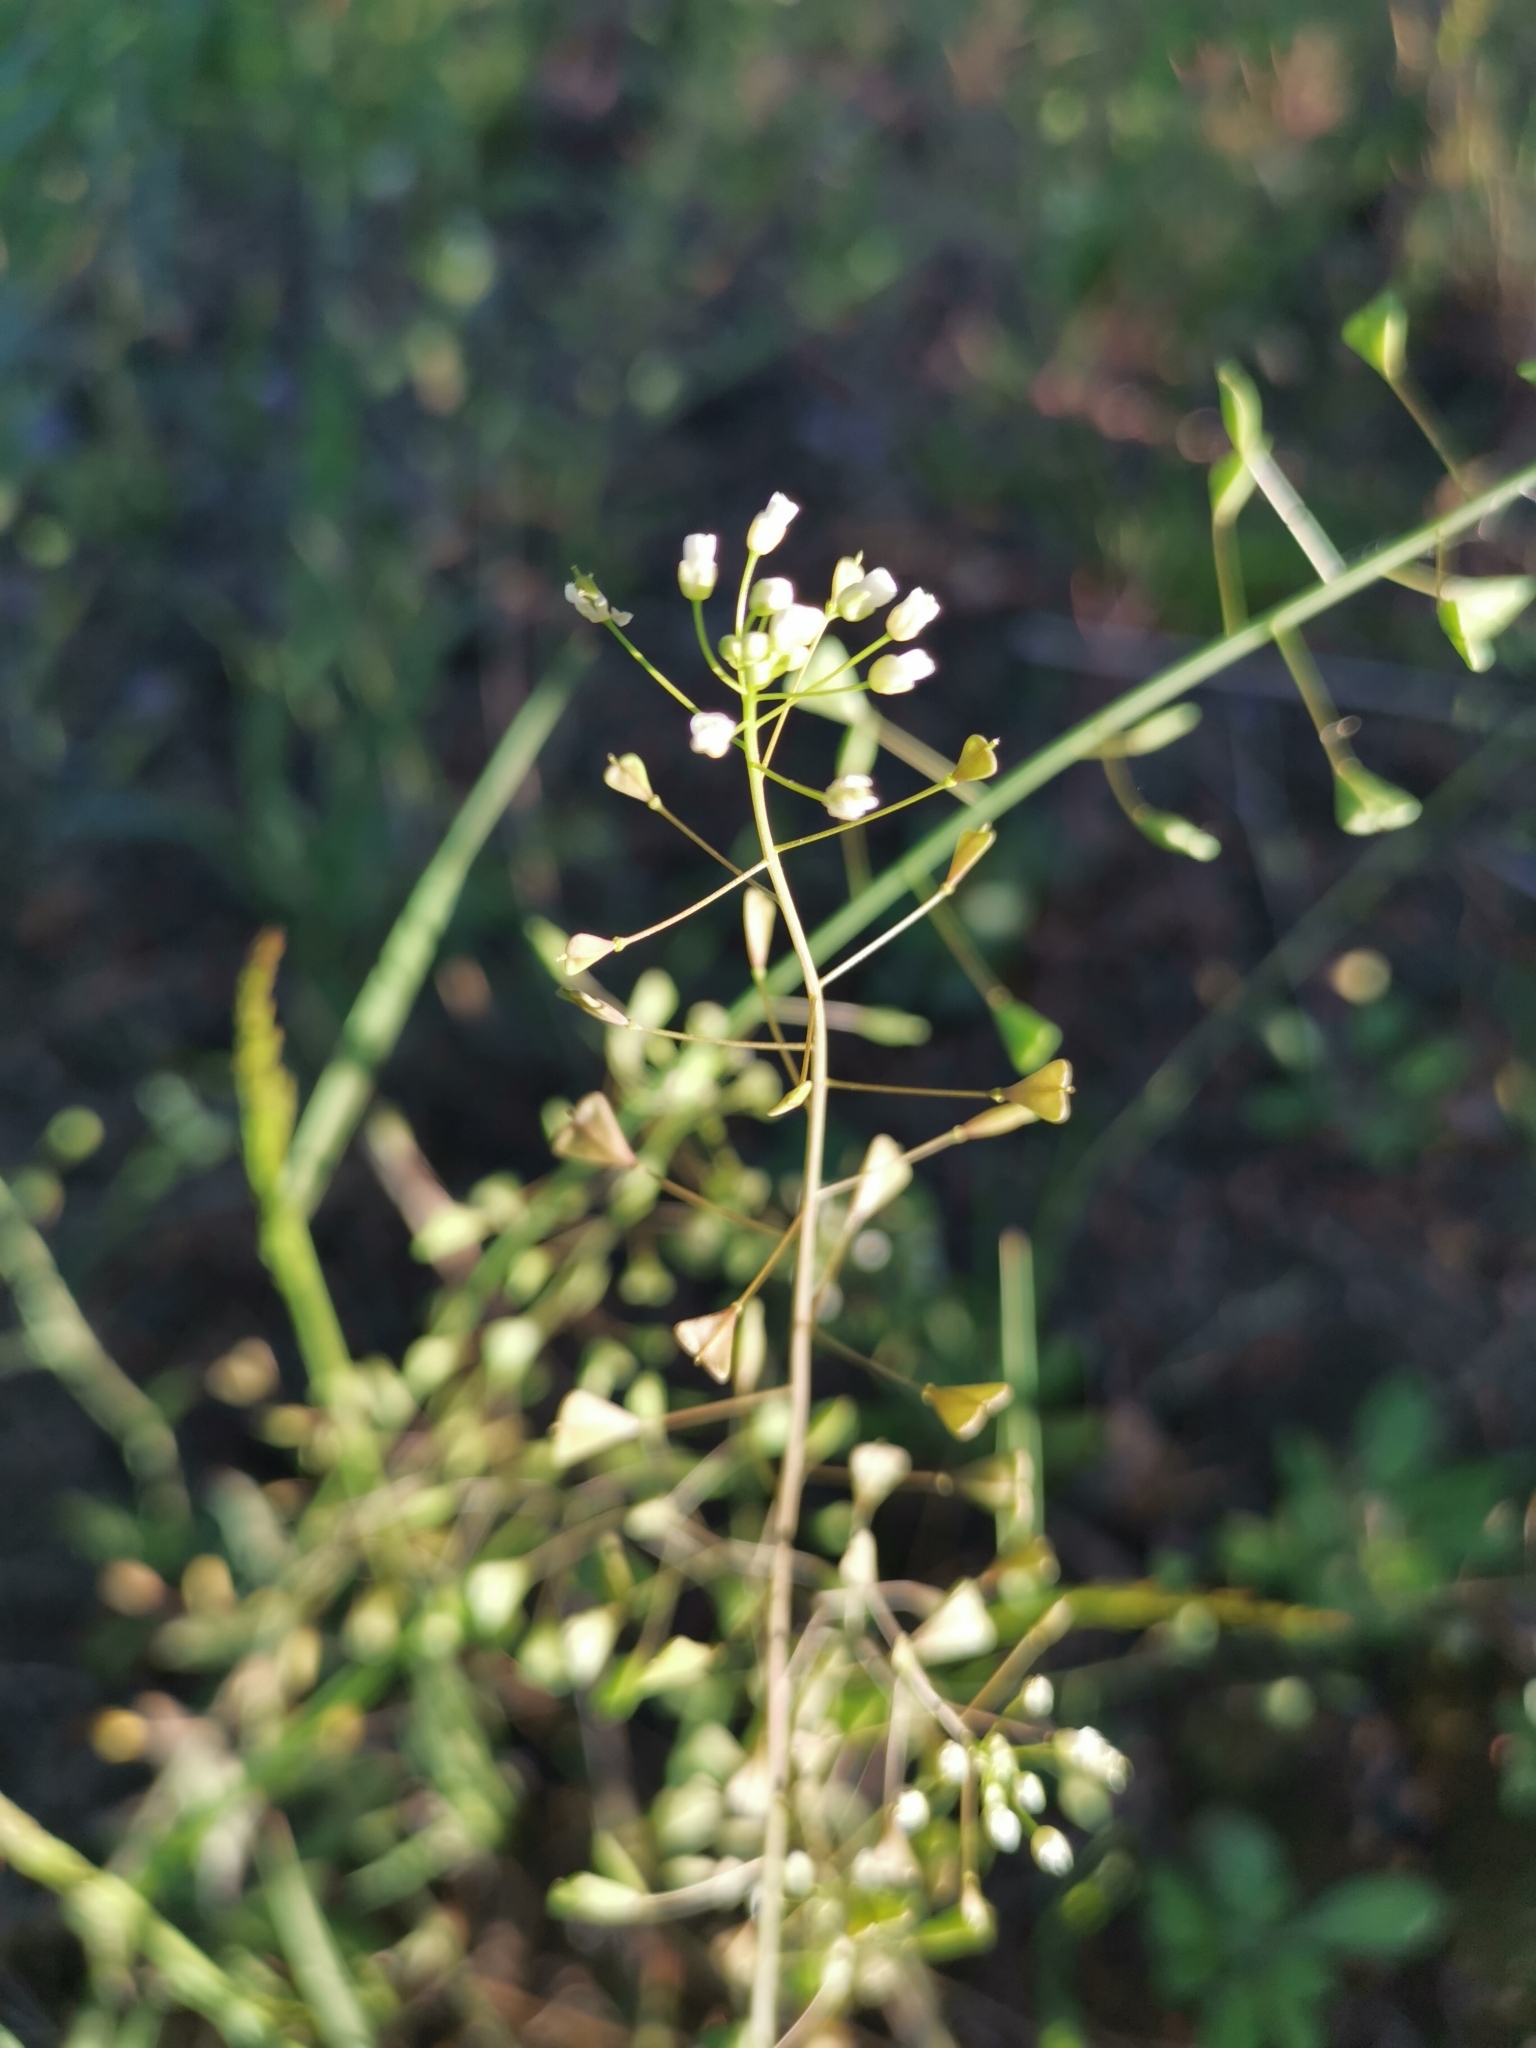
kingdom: Plantae
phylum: Tracheophyta
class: Magnoliopsida
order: Brassicales
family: Brassicaceae
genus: Capsella
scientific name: Capsella bursa-pastoris
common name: Shepherd's purse
